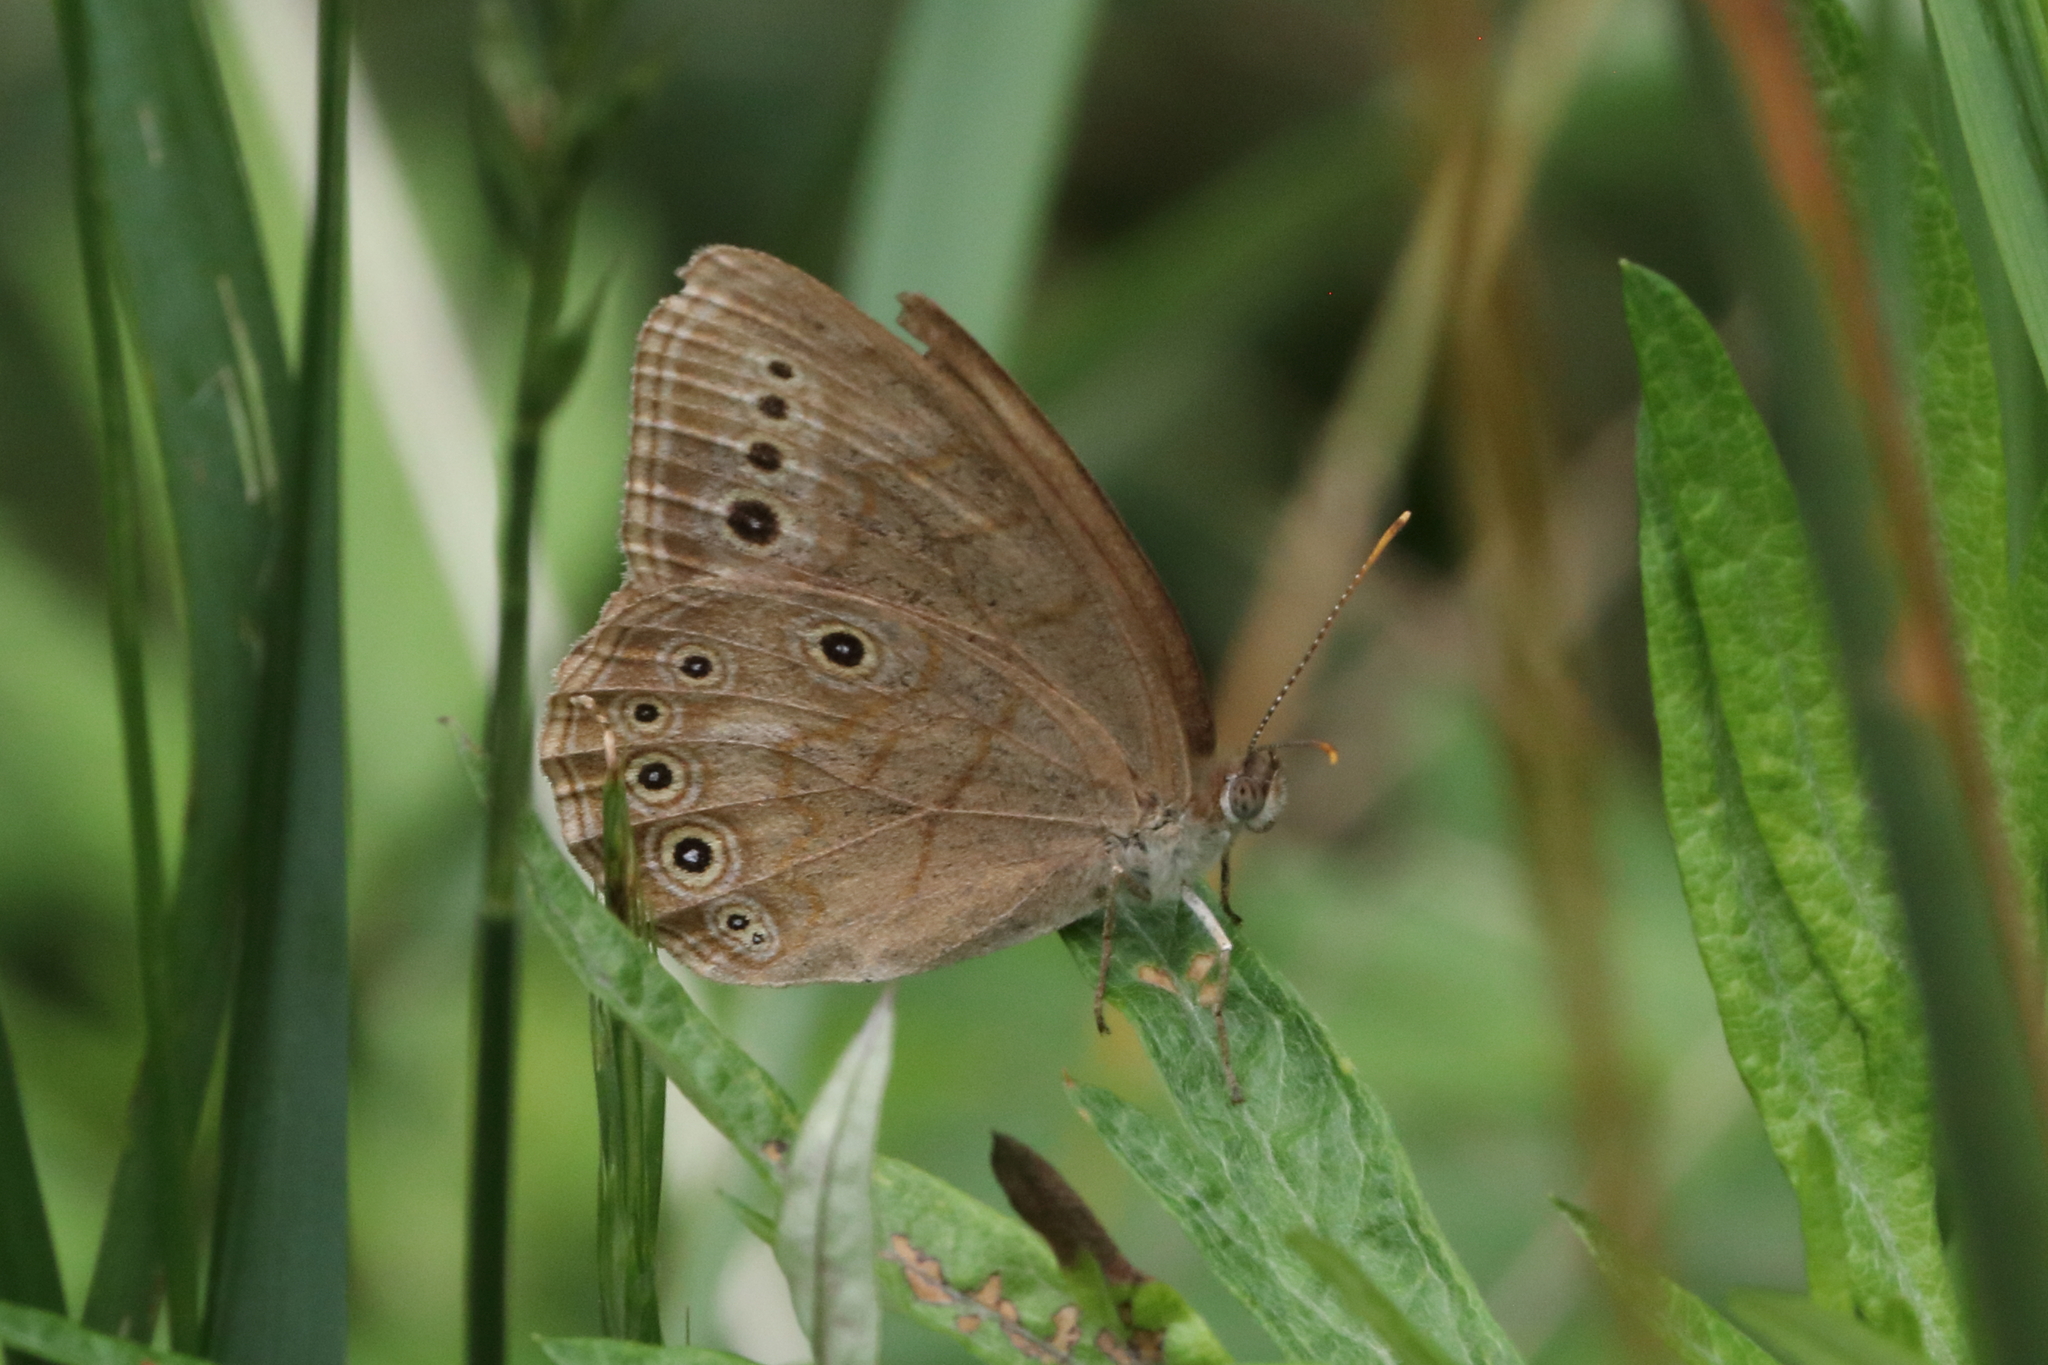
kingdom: Animalia
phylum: Arthropoda
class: Insecta
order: Lepidoptera
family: Nymphalidae
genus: Lethe
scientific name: Lethe eurydice
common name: Eyed brown
